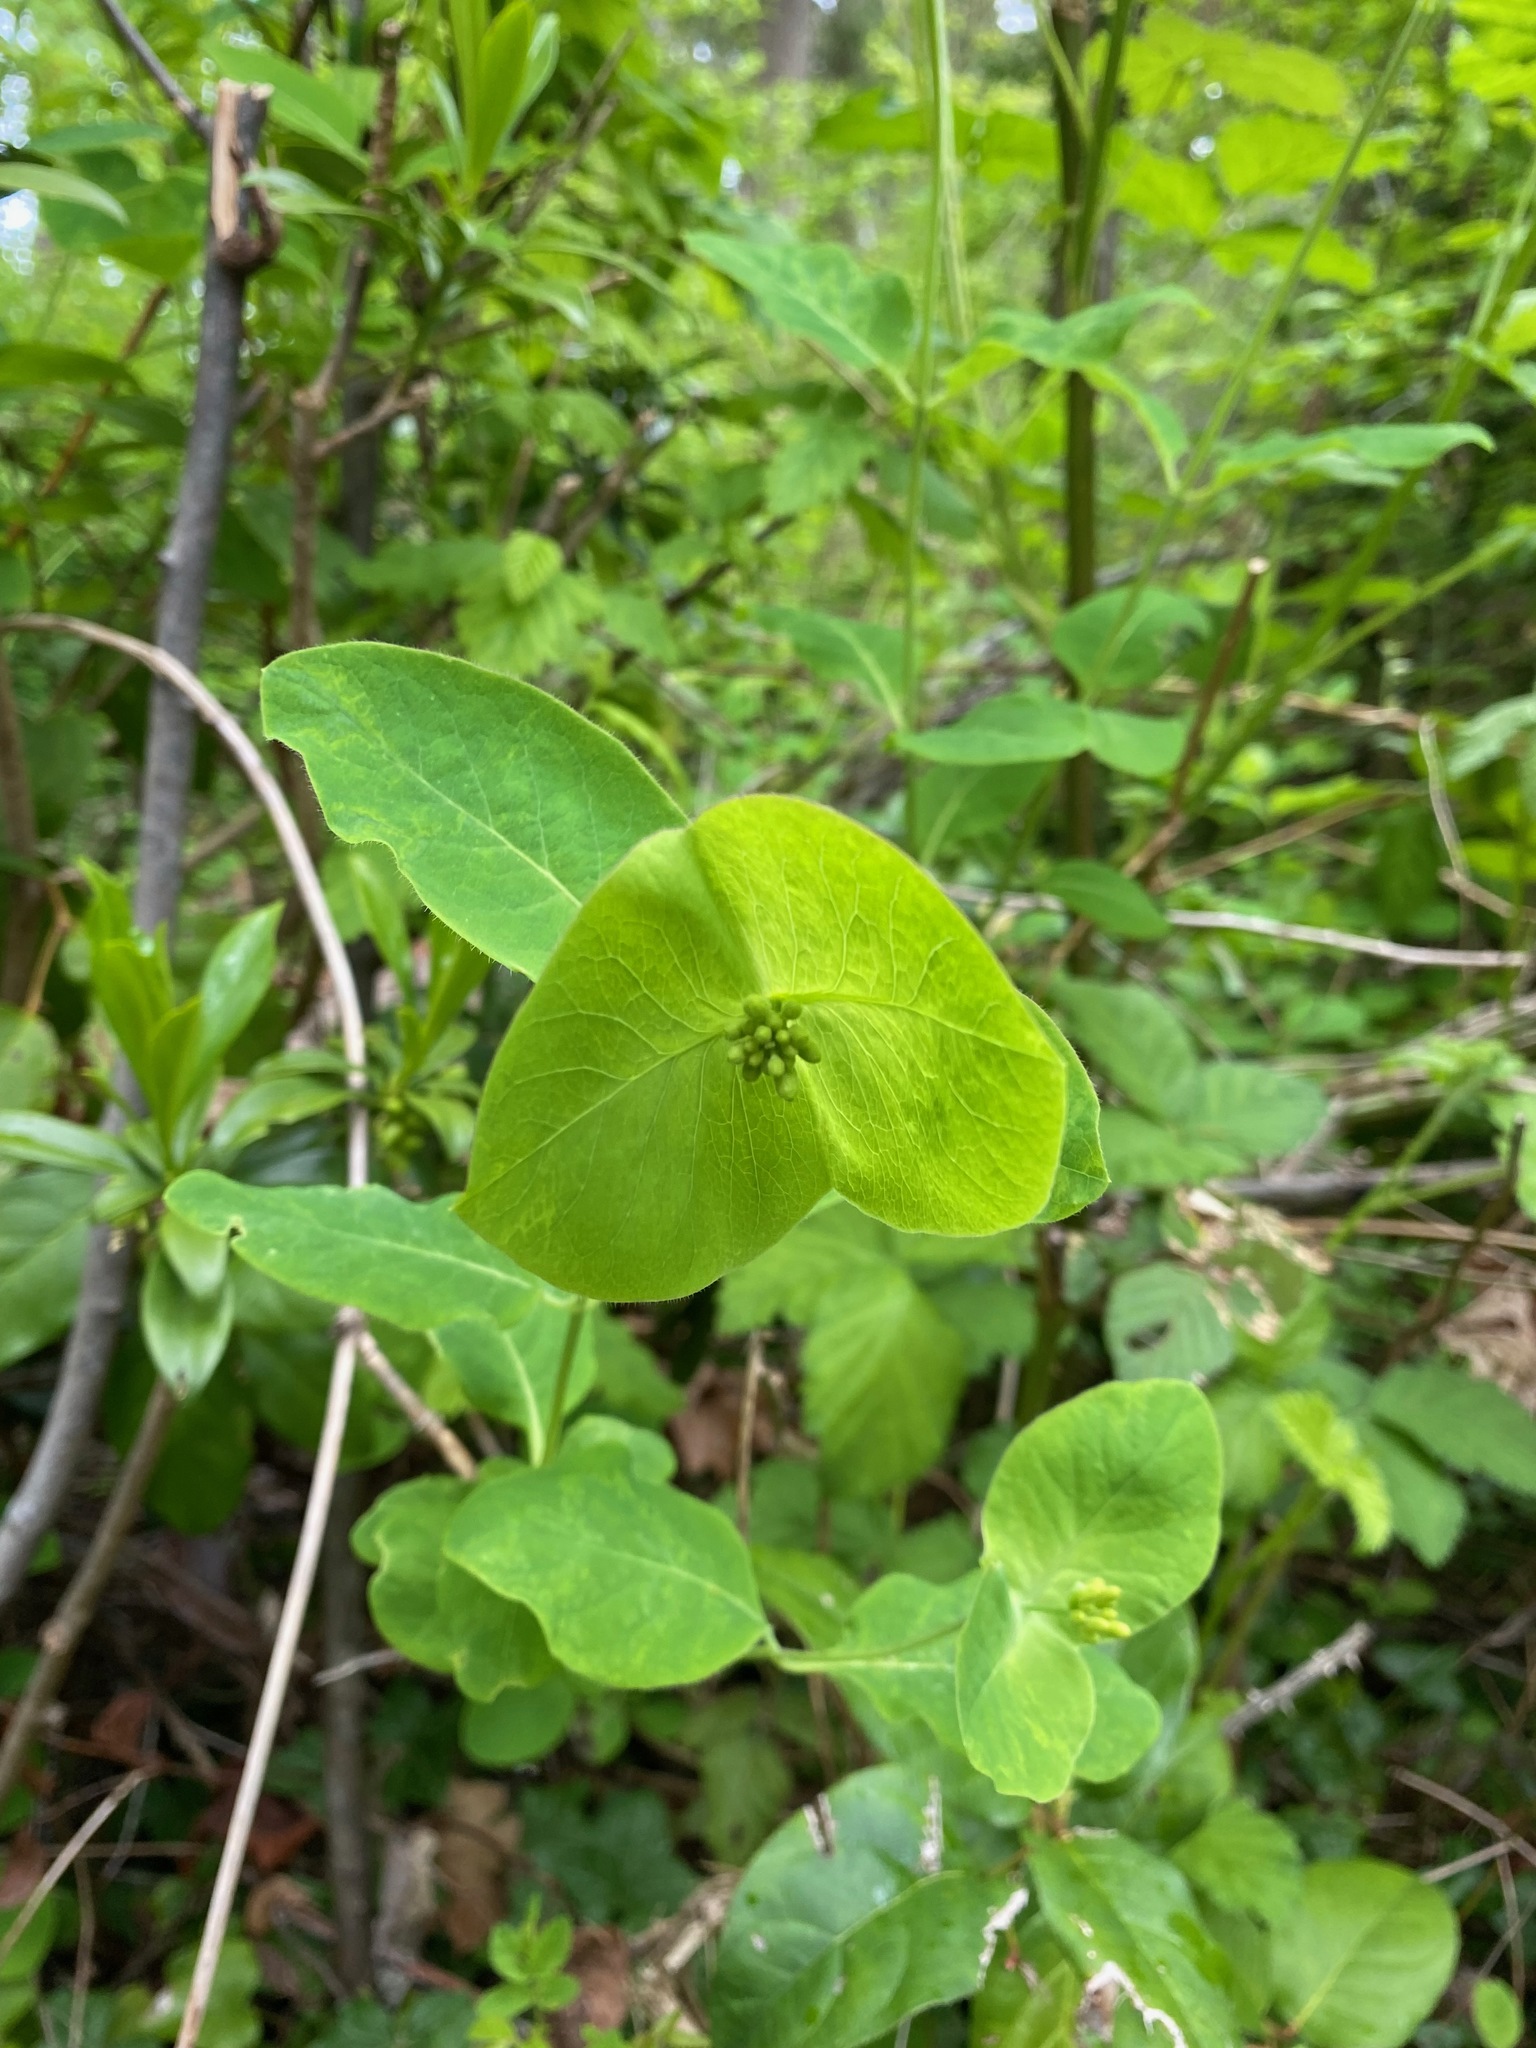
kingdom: Plantae
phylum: Tracheophyta
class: Magnoliopsida
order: Dipsacales
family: Caprifoliaceae
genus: Lonicera
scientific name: Lonicera ciliosa
